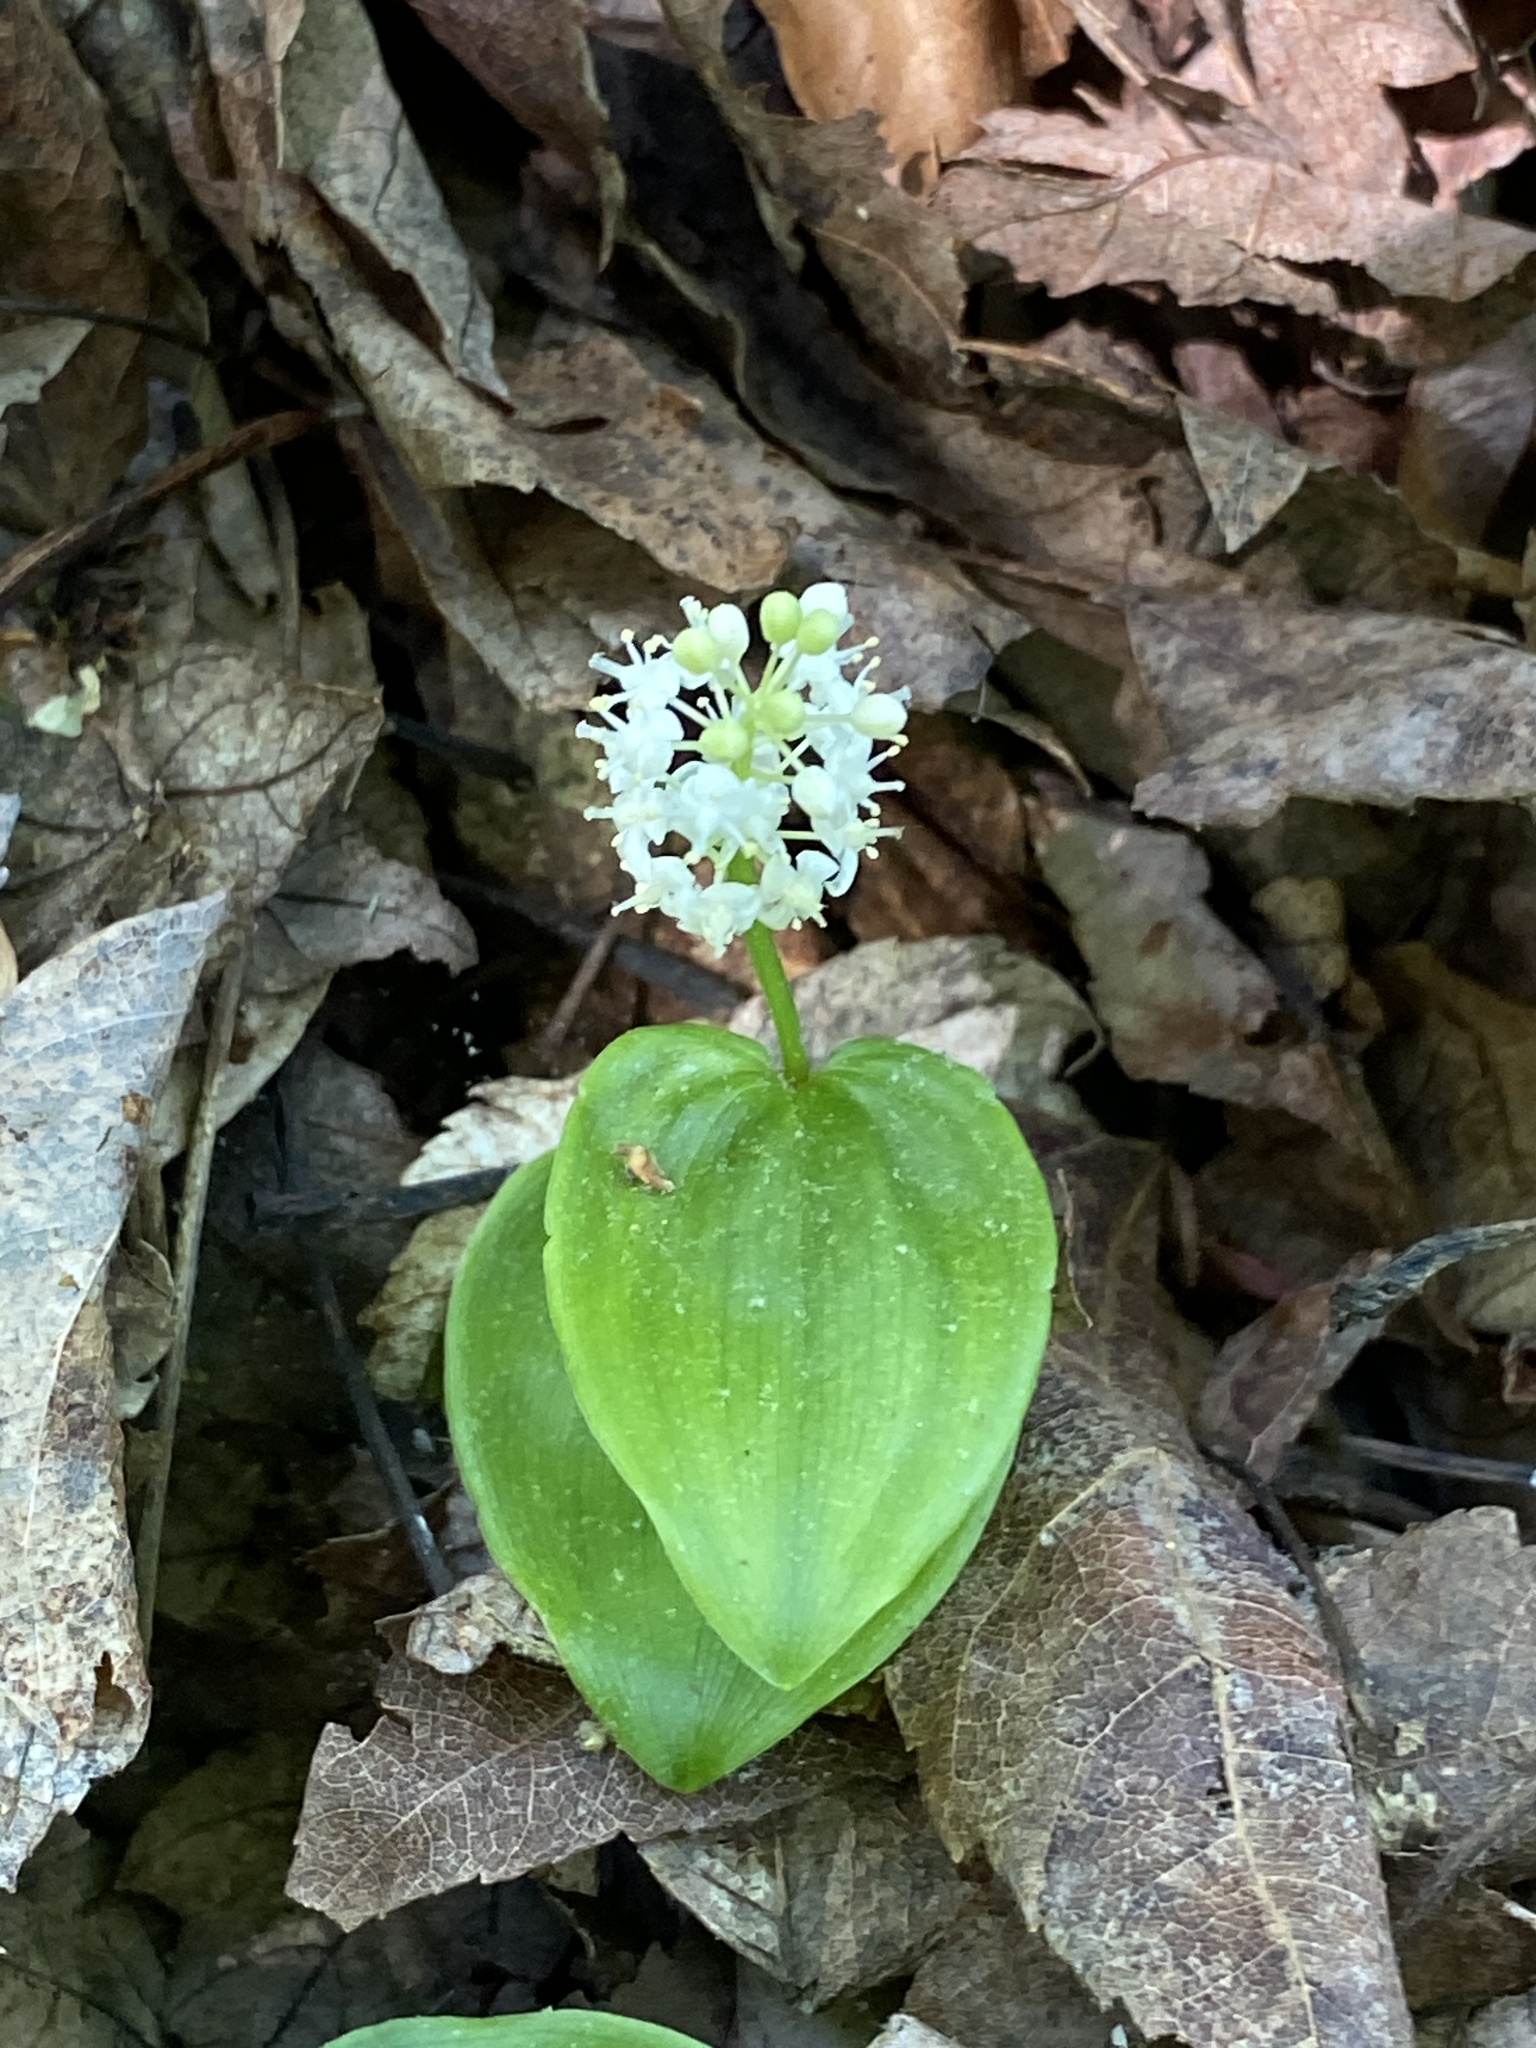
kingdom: Plantae
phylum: Tracheophyta
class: Liliopsida
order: Asparagales
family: Asparagaceae
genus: Maianthemum
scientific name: Maianthemum canadense
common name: False lily-of-the-valley
